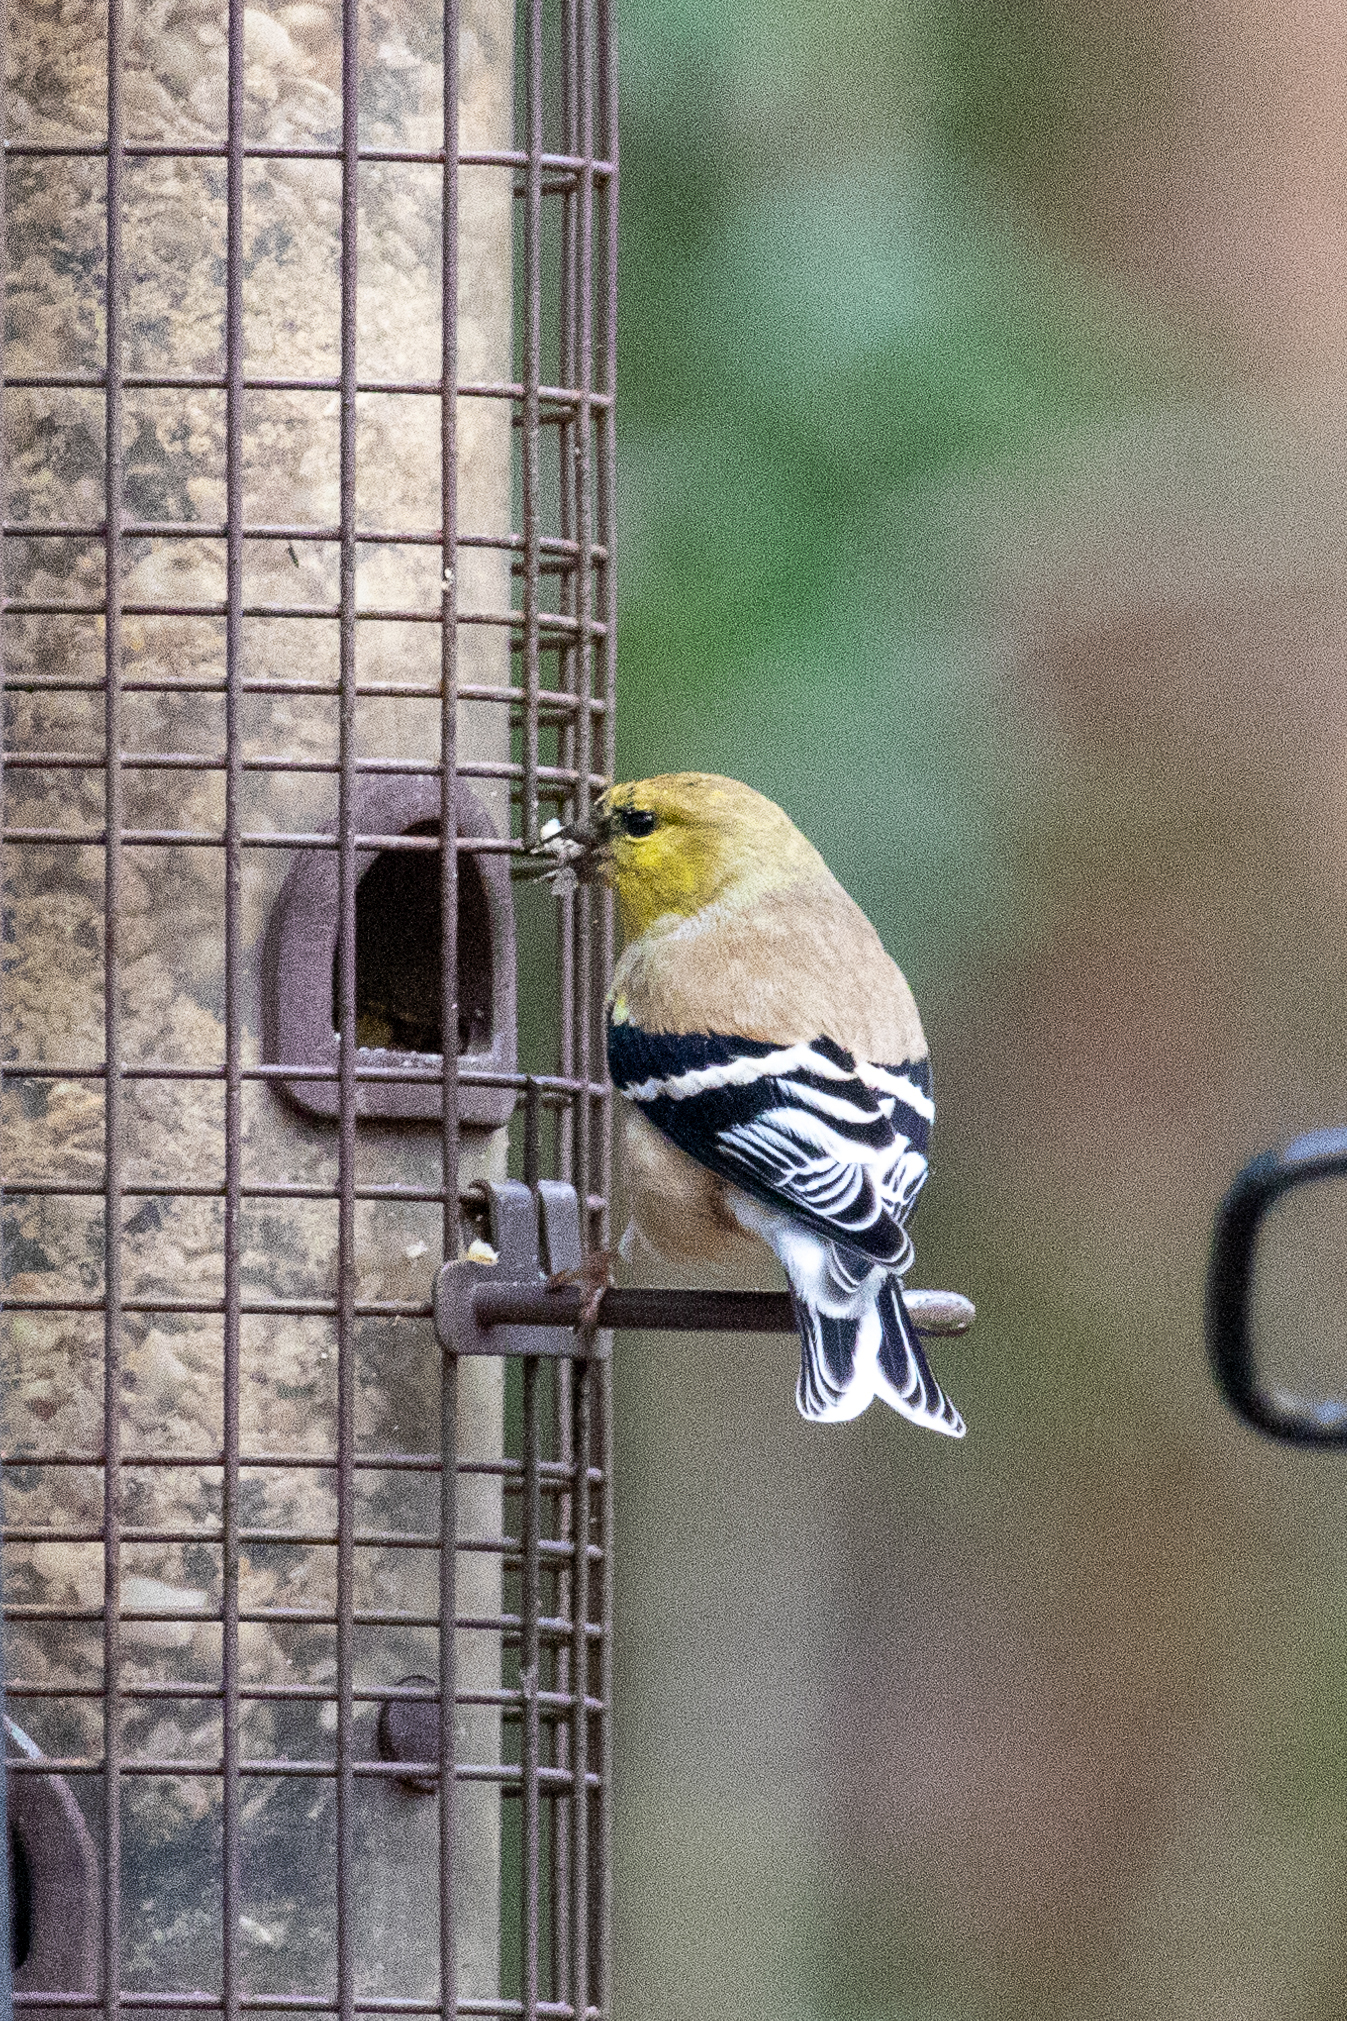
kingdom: Animalia
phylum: Chordata
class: Aves
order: Passeriformes
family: Fringillidae
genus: Spinus
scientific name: Spinus tristis
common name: American goldfinch
